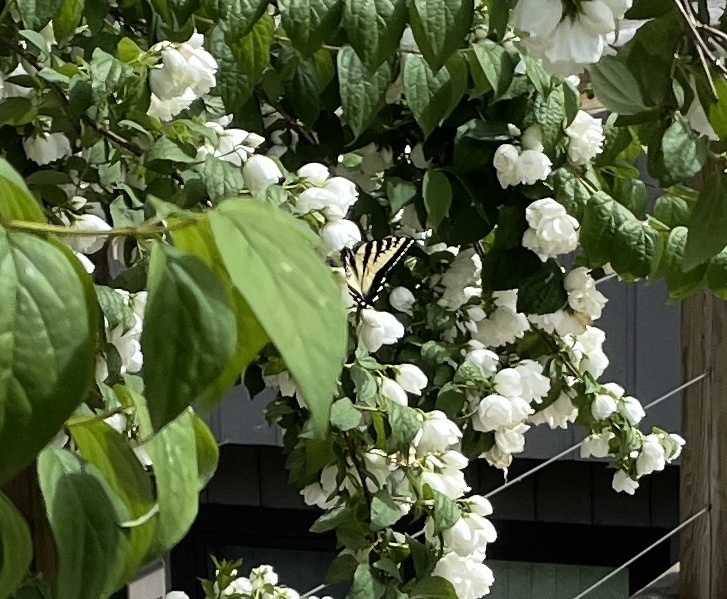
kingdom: Animalia
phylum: Arthropoda
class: Insecta
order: Lepidoptera
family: Papilionidae
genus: Papilio
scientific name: Papilio rutulus
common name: Western tiger swallowtail
